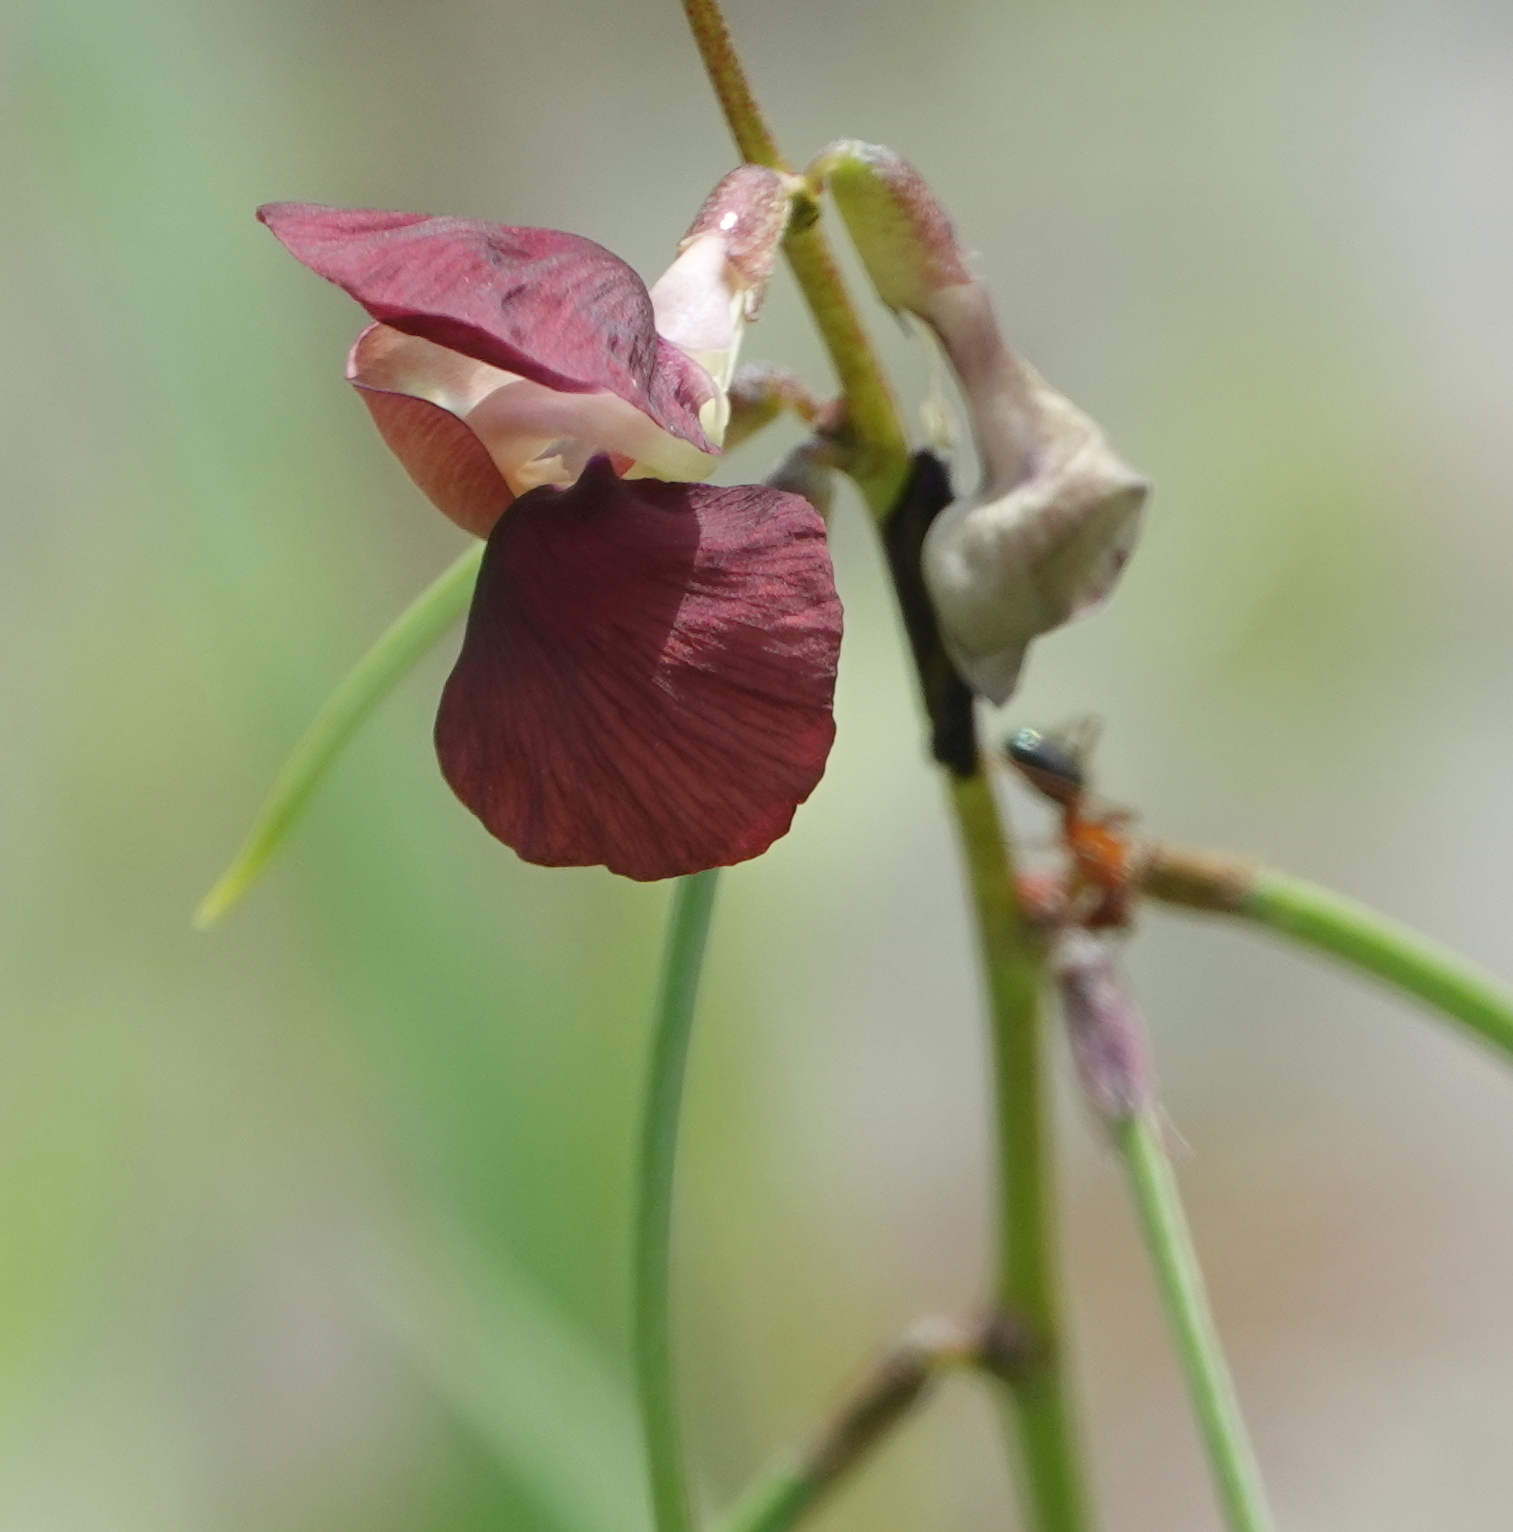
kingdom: Plantae
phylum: Tracheophyta
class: Magnoliopsida
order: Fabales
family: Fabaceae
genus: Macroptilium
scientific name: Macroptilium lathyroides
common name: Wild bushbean
